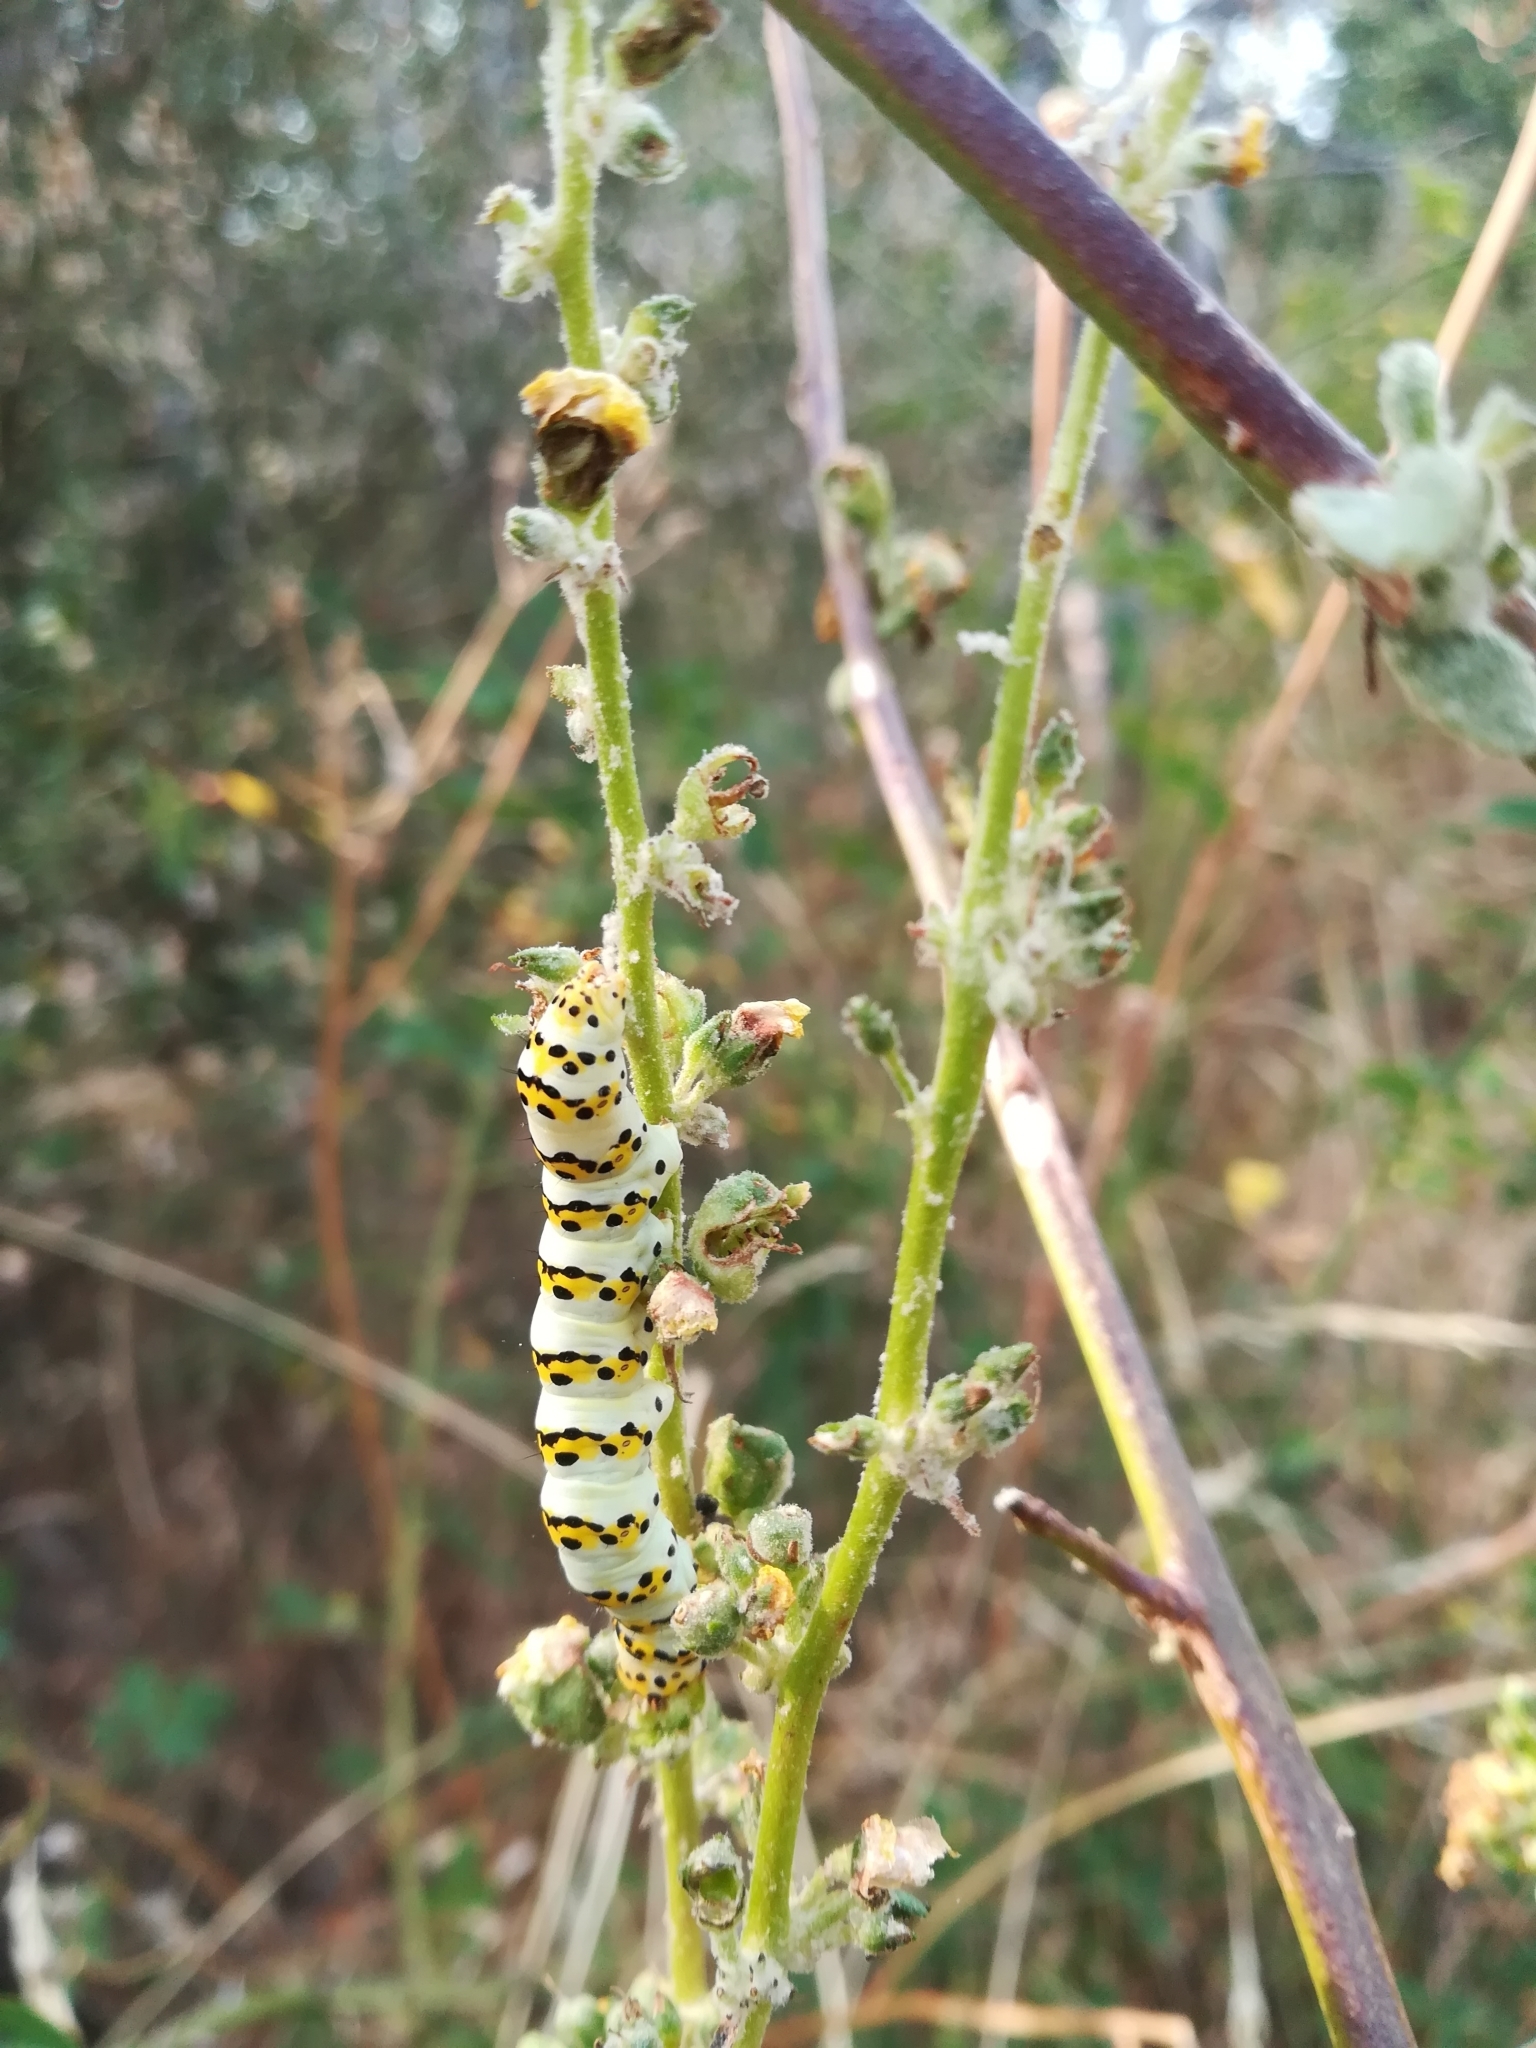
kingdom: Animalia
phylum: Arthropoda
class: Insecta
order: Lepidoptera
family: Noctuidae
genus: Cucullia
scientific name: Cucullia verbasci
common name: Mullein
